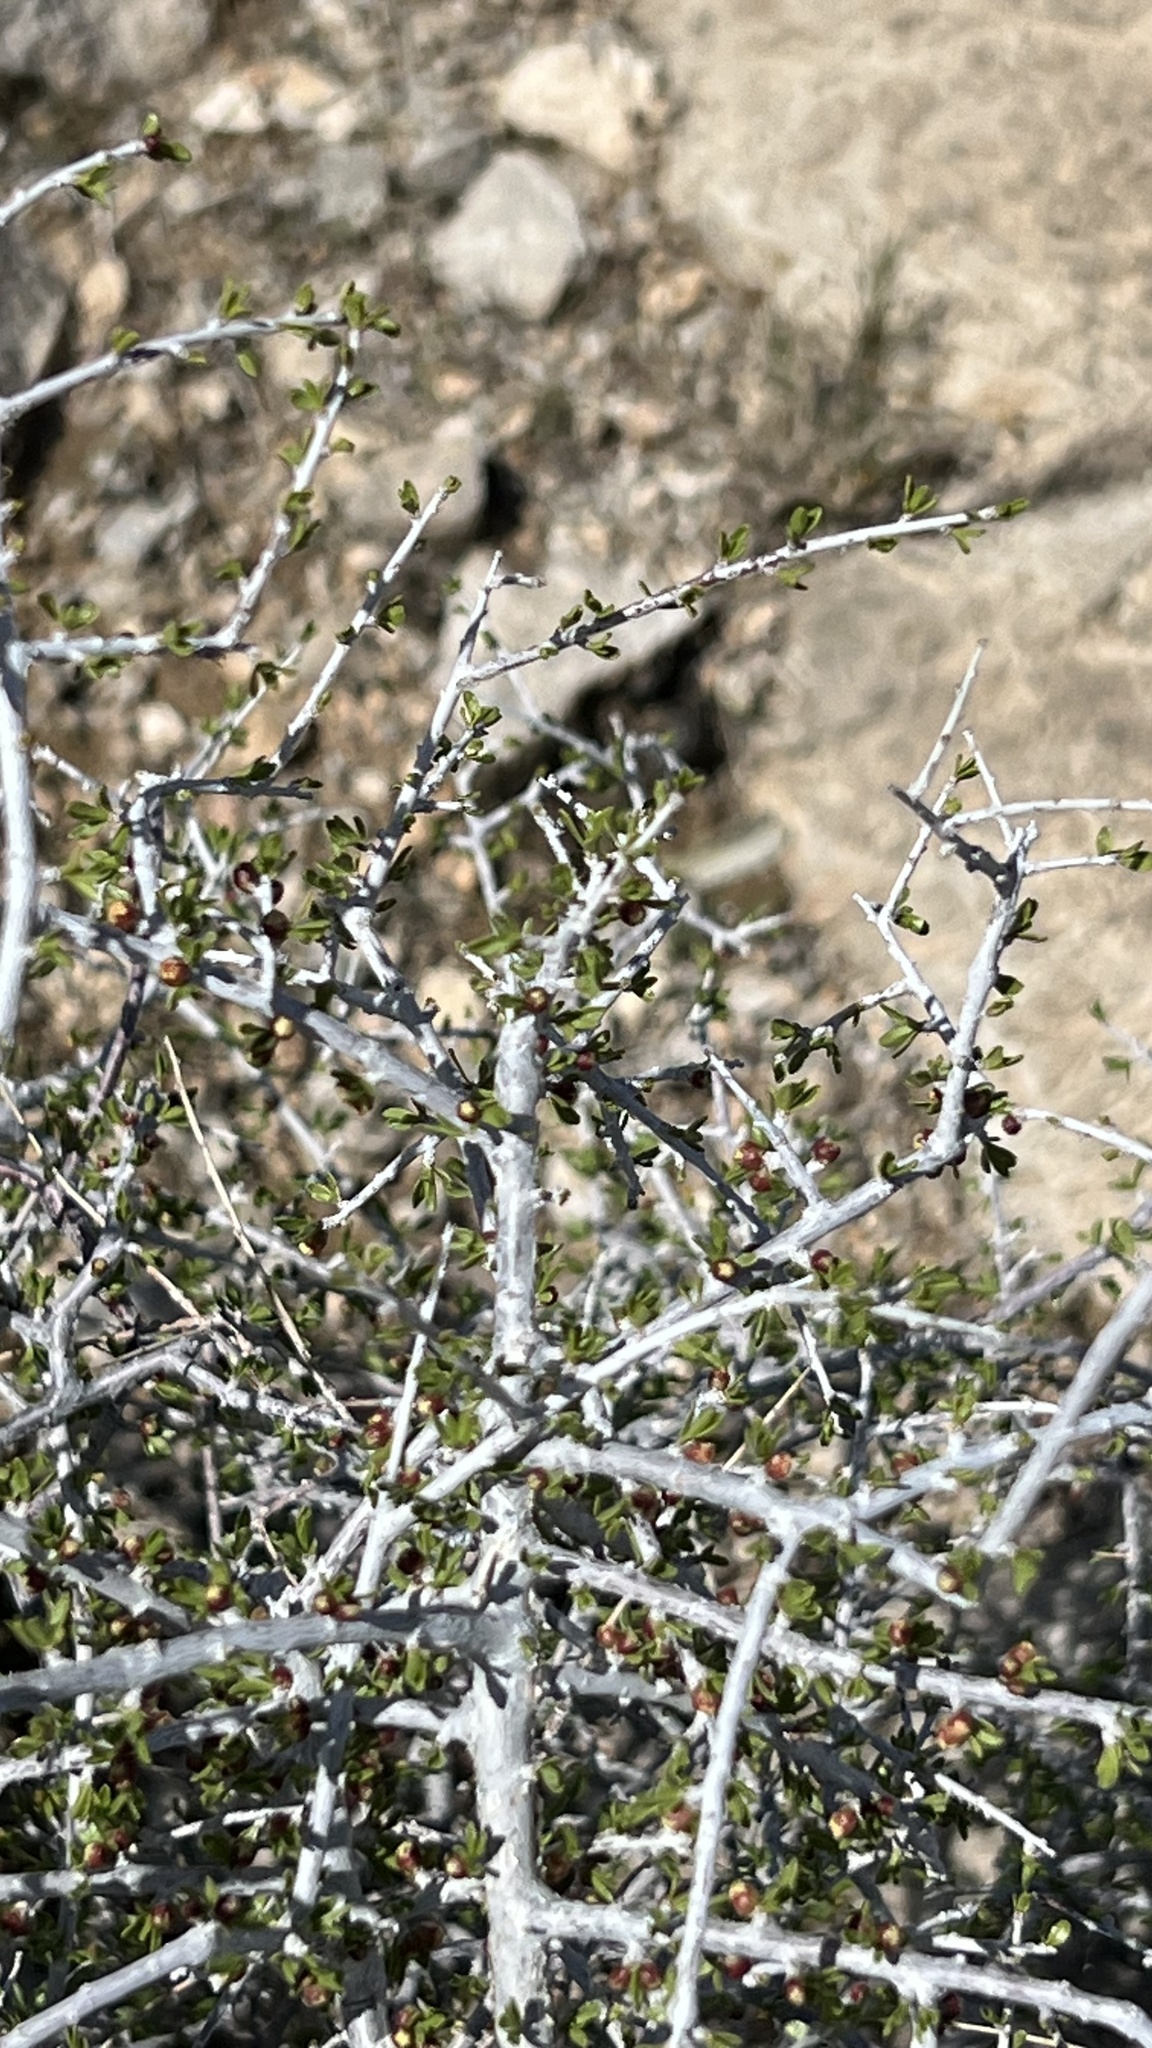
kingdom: Plantae
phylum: Tracheophyta
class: Magnoliopsida
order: Rosales
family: Rosaceae
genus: Prunus
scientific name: Prunus fasciculata
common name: Desert almond
